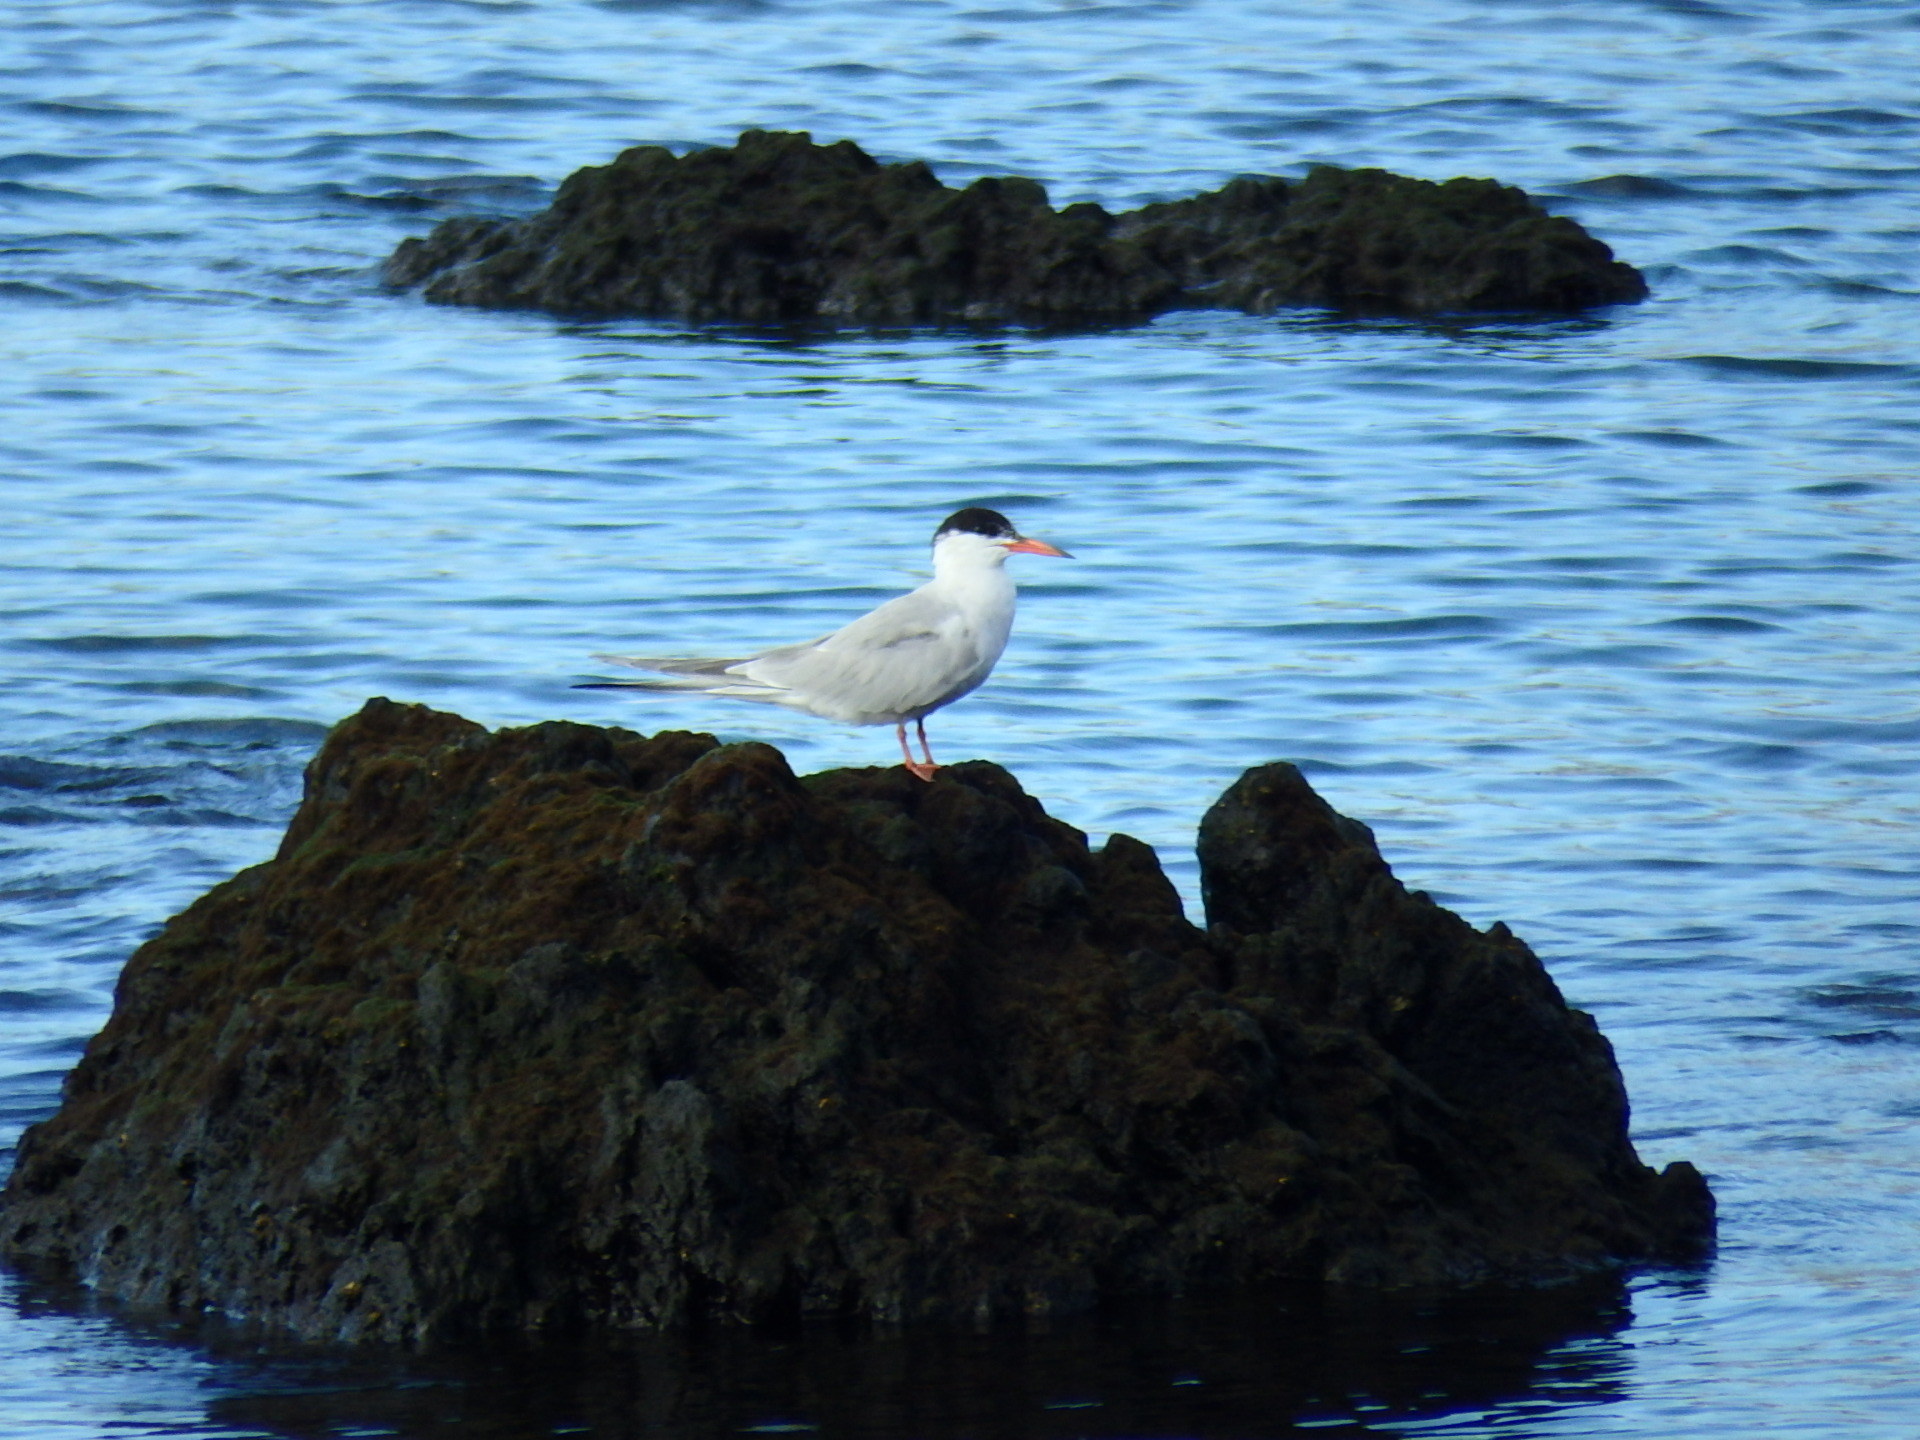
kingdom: Animalia
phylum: Chordata
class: Aves
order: Charadriiformes
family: Laridae
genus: Sterna
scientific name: Sterna hirundo
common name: Common tern
